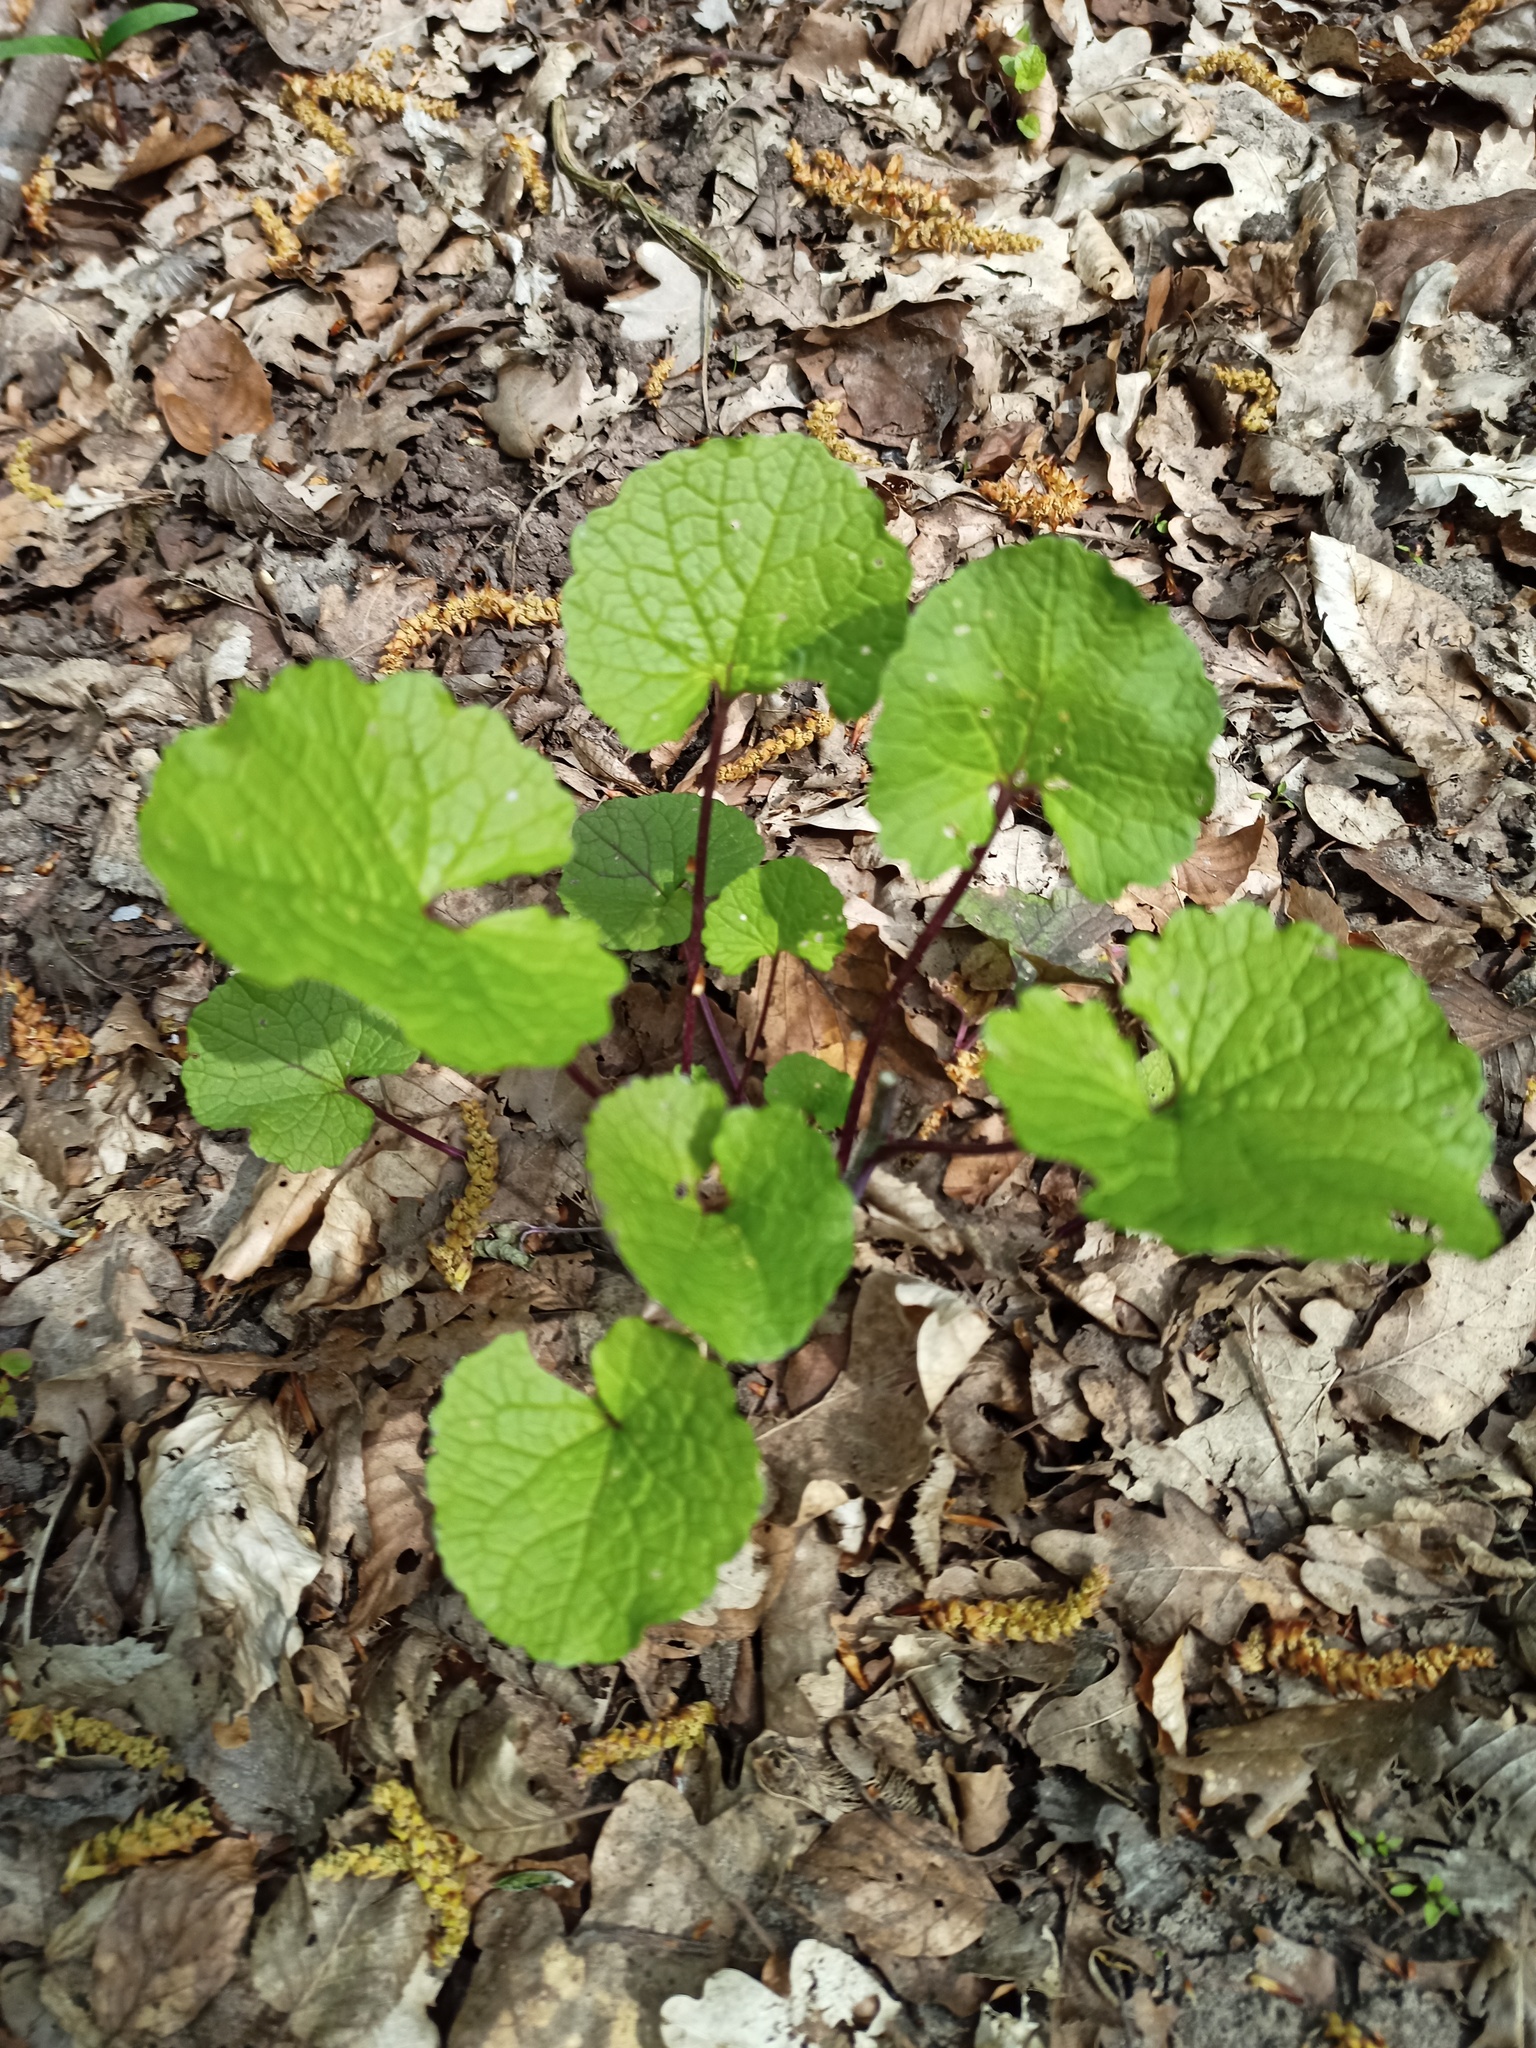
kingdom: Plantae
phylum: Tracheophyta
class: Magnoliopsida
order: Brassicales
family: Brassicaceae
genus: Alliaria
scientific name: Alliaria petiolata
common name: Garlic mustard
